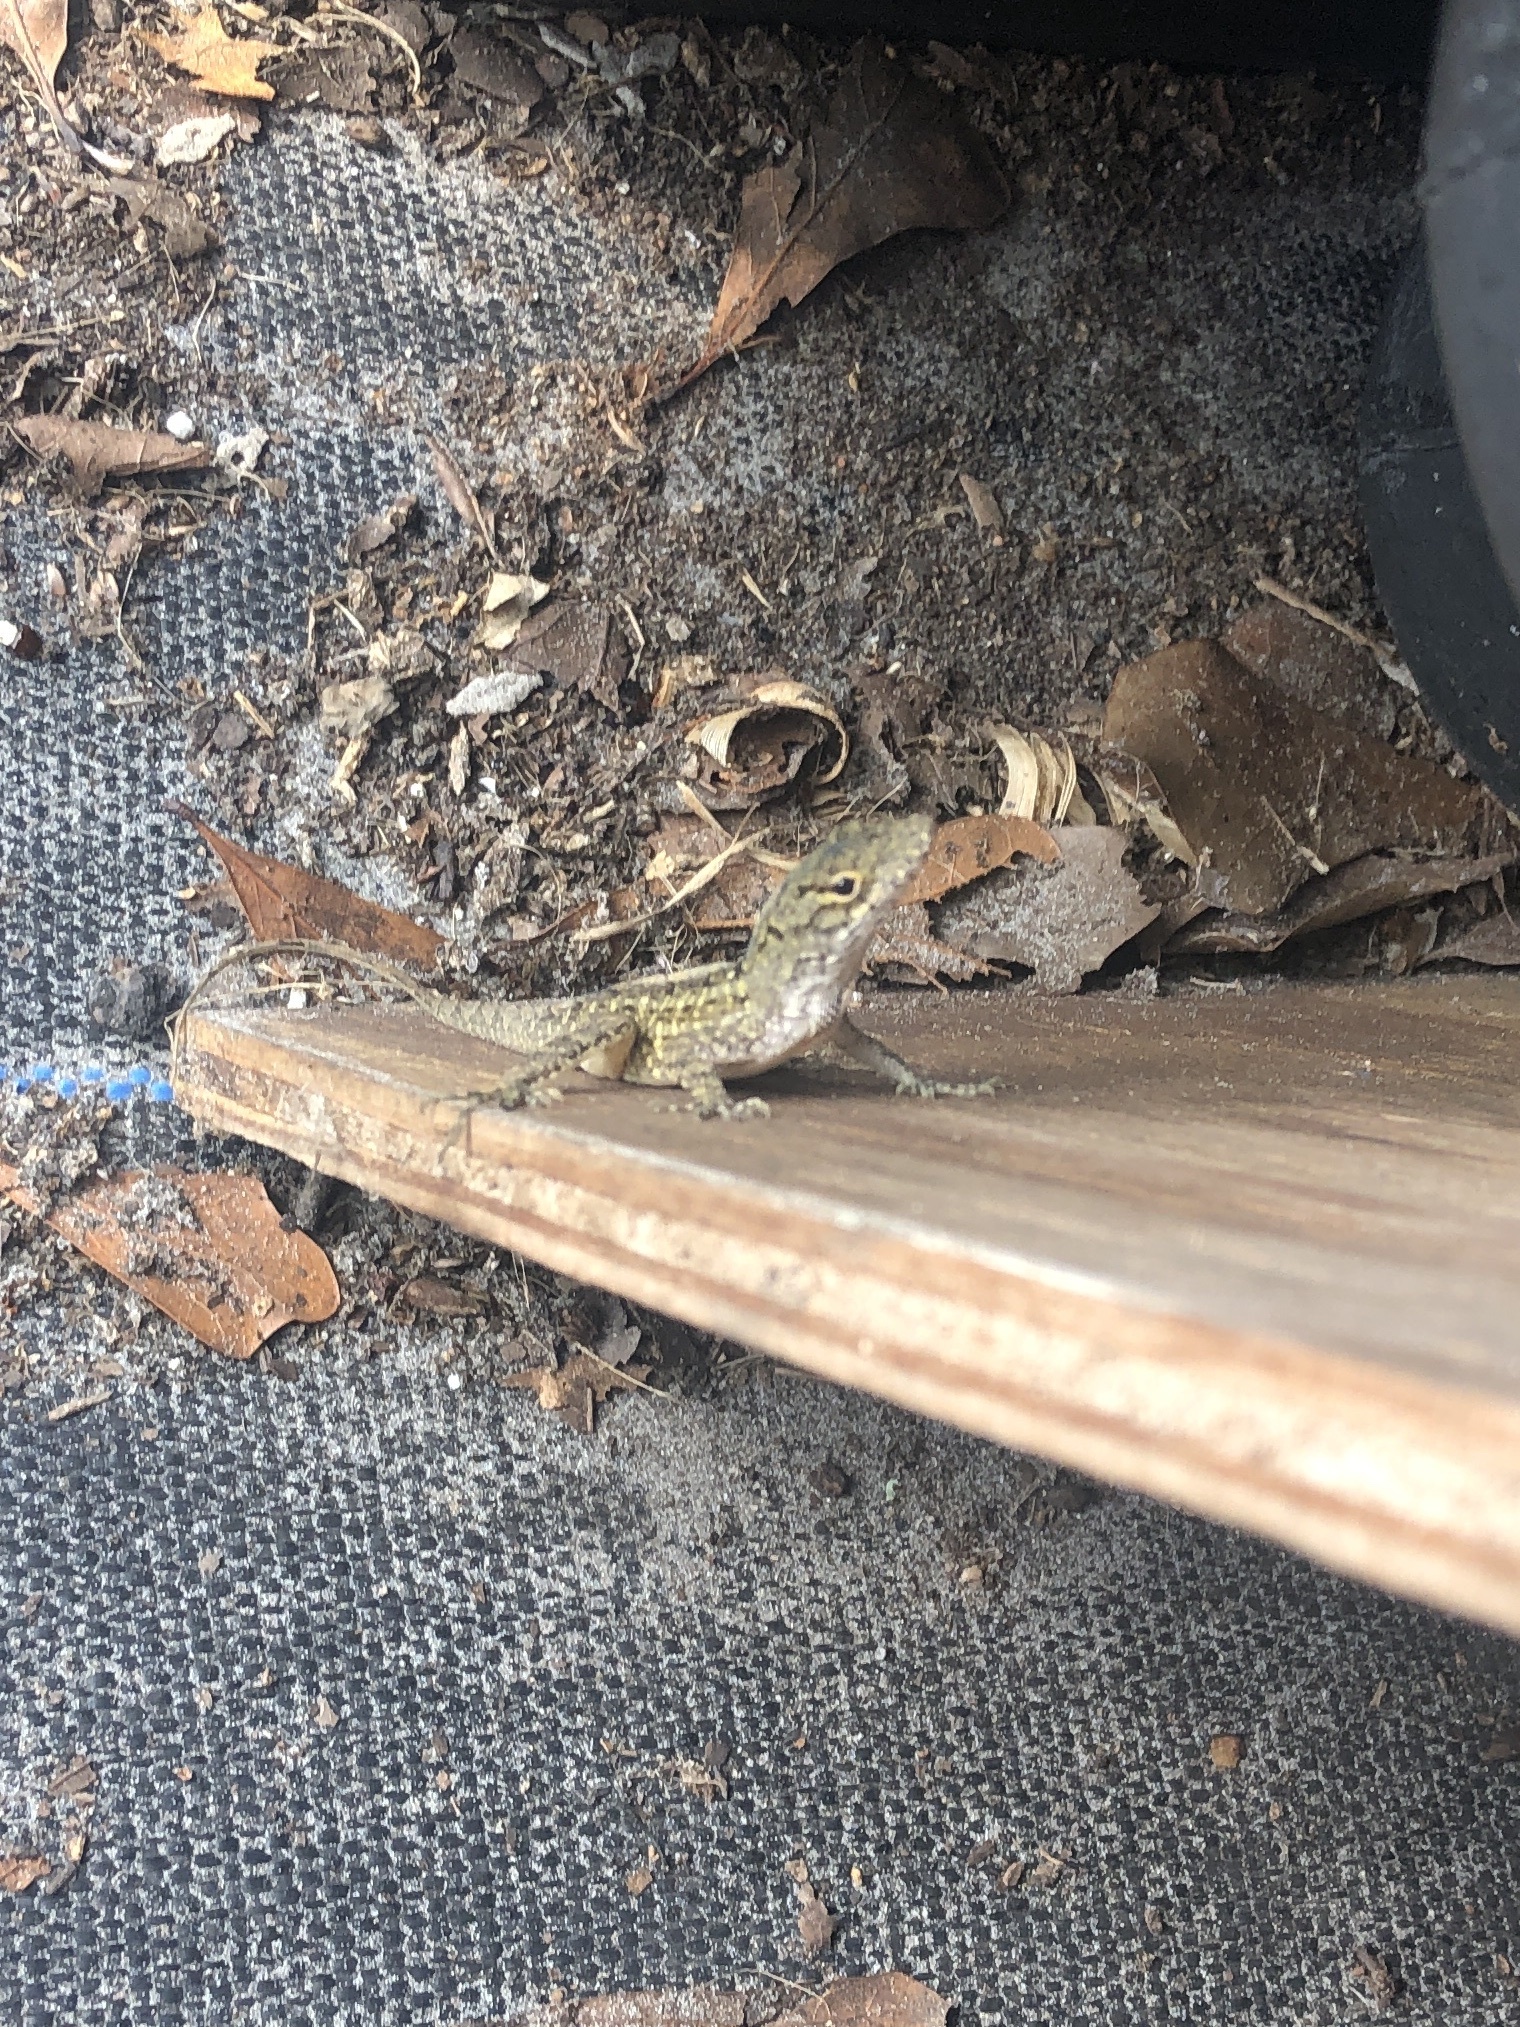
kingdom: Animalia
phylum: Chordata
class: Squamata
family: Dactyloidae
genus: Anolis
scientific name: Anolis sagrei
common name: Brown anole
